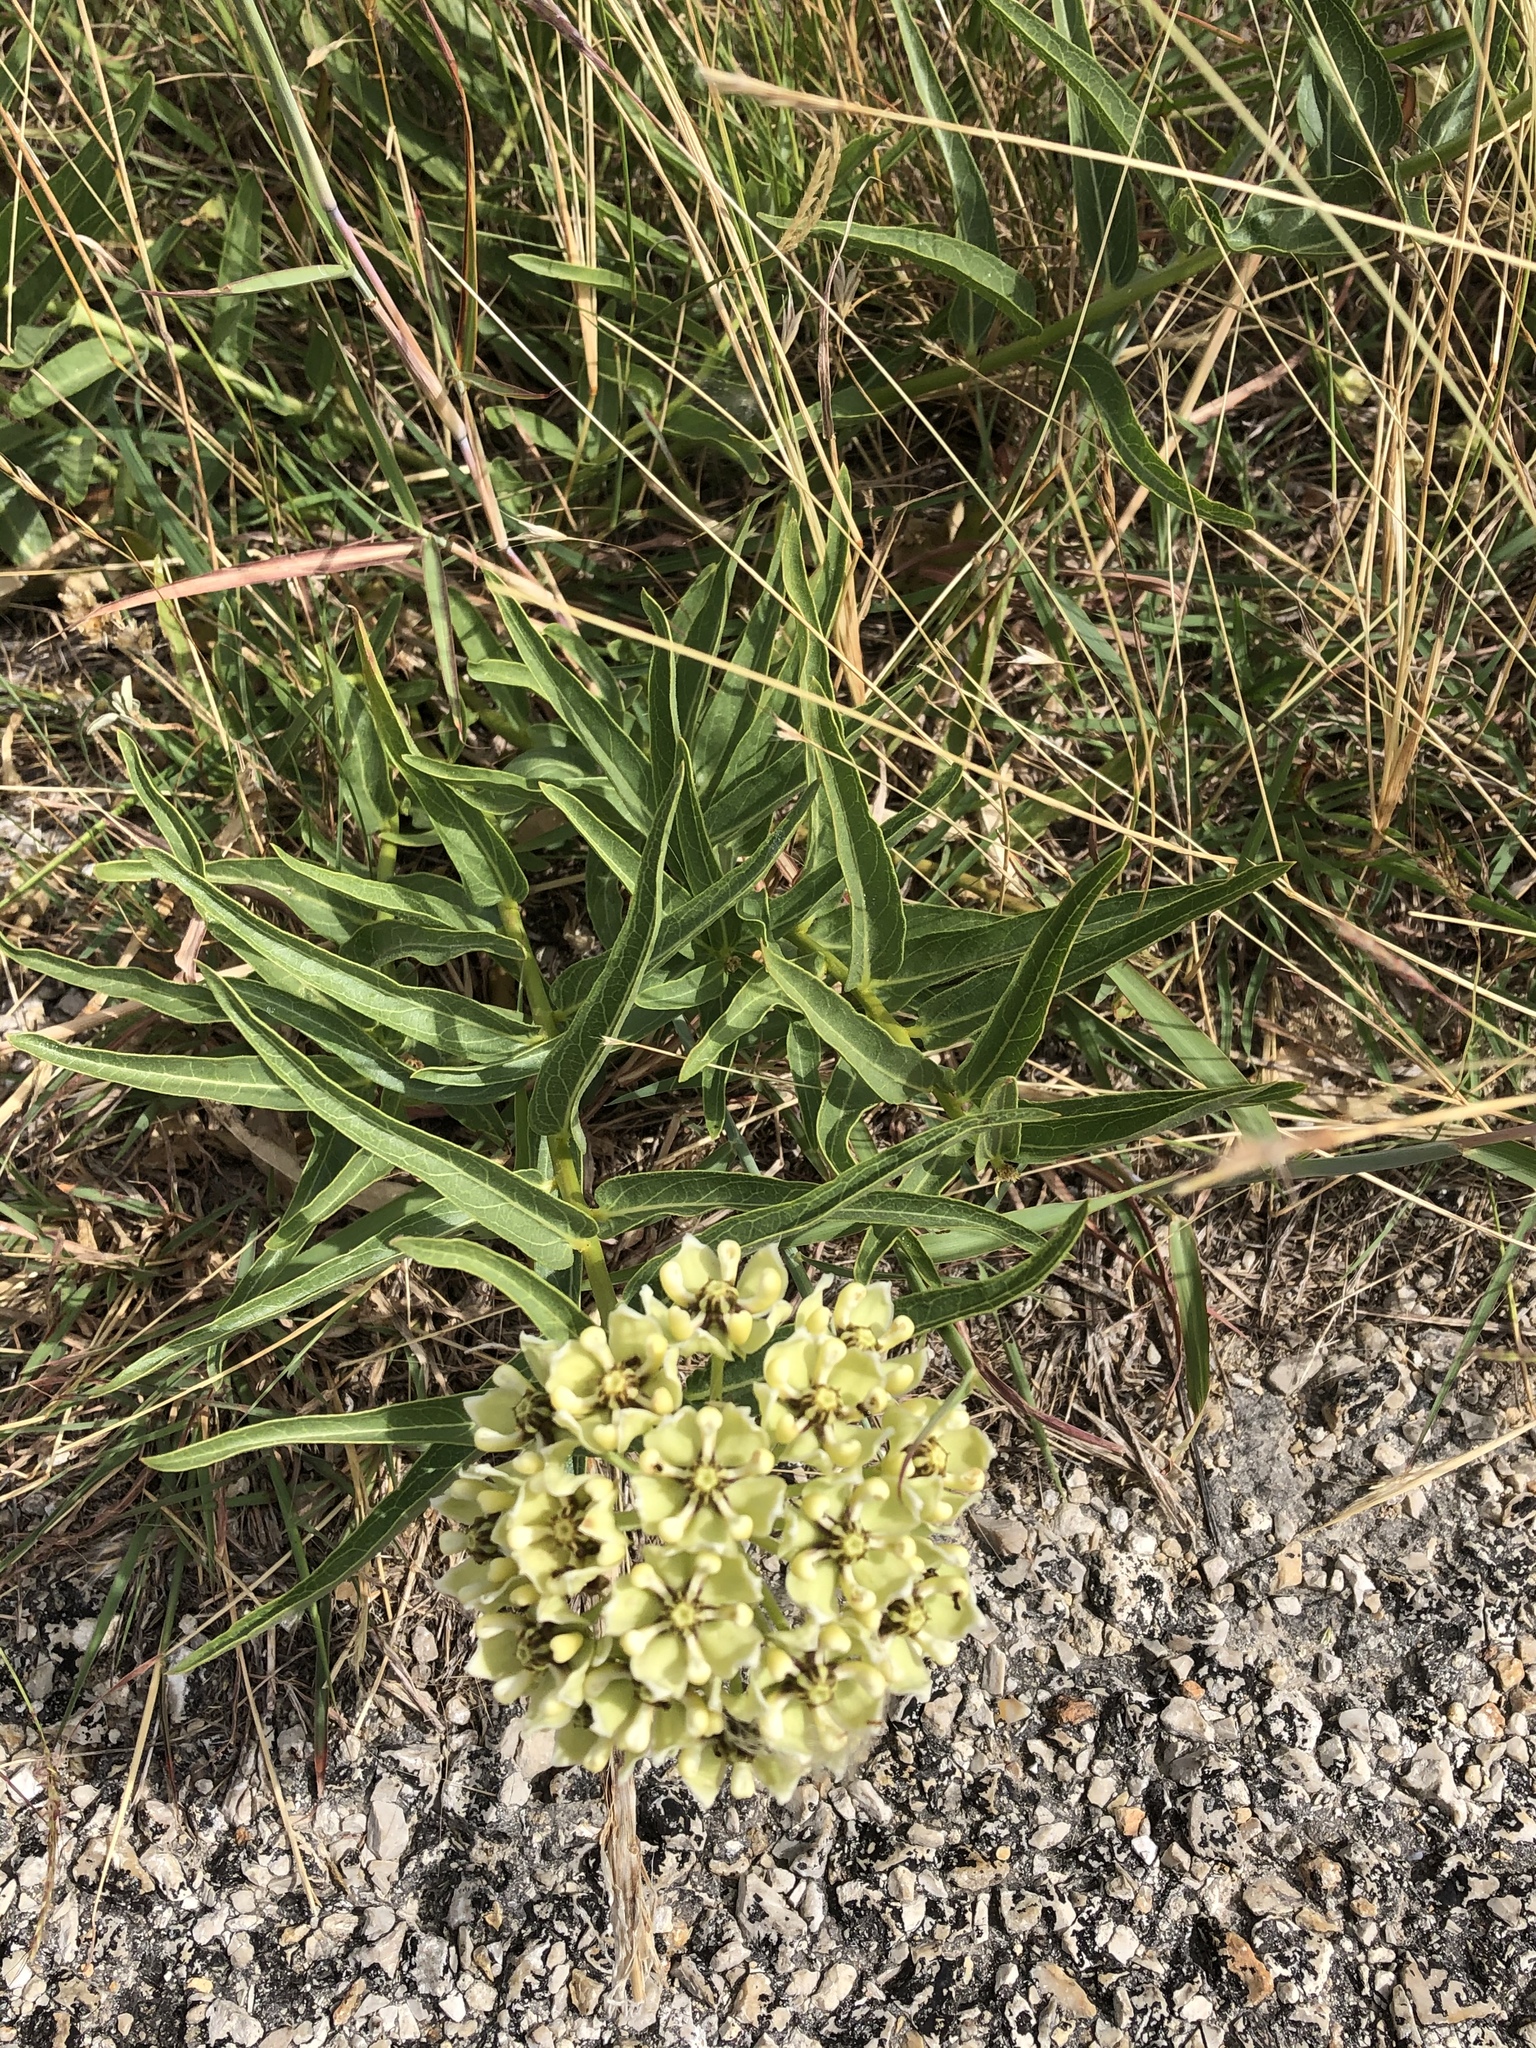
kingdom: Plantae
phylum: Tracheophyta
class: Magnoliopsida
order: Gentianales
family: Apocynaceae
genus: Asclepias
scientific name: Asclepias asperula
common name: Antelope horns
